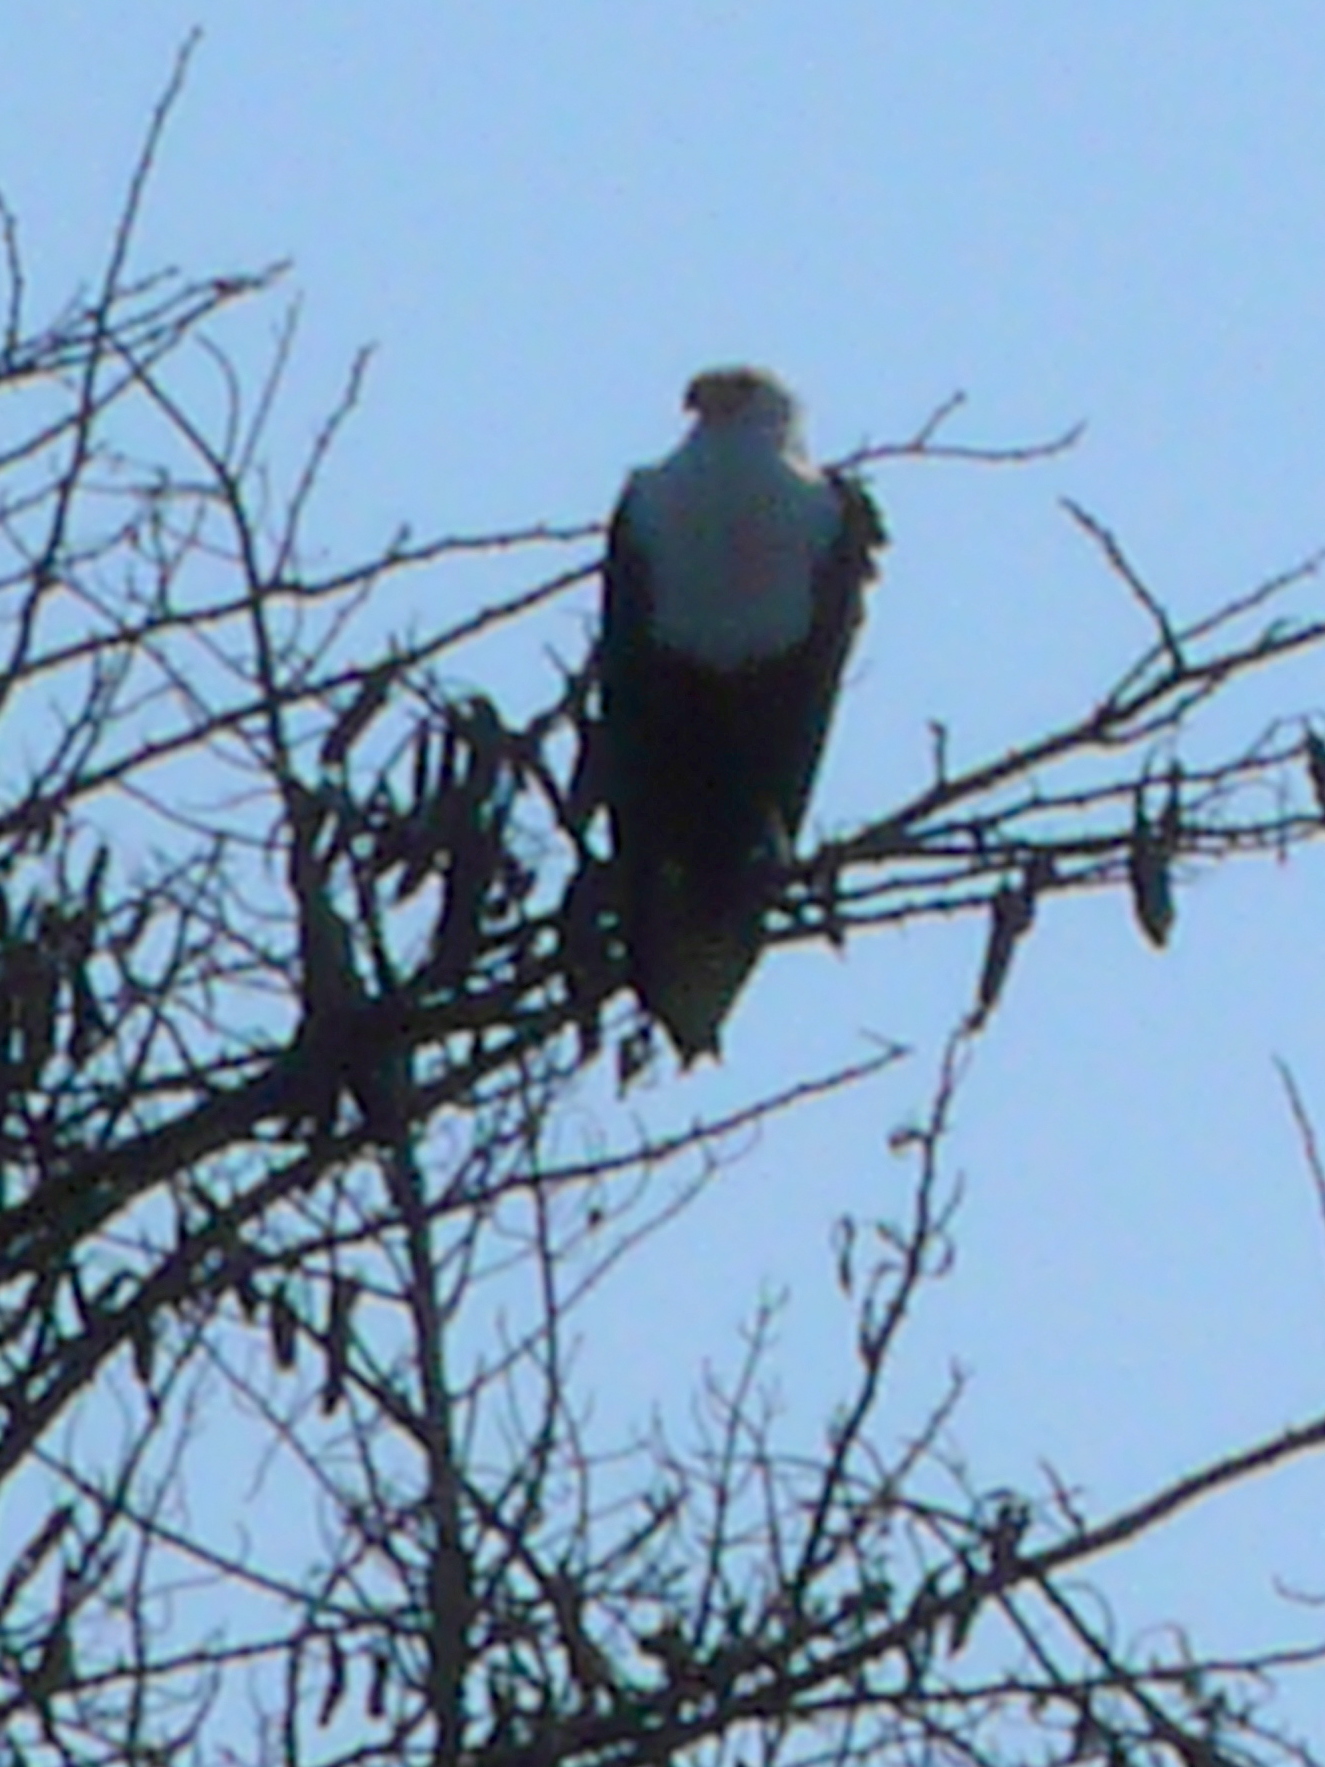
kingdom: Animalia
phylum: Chordata
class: Aves
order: Accipitriformes
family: Accipitridae
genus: Haliaeetus
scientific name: Haliaeetus vocifer
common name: African fish eagle
